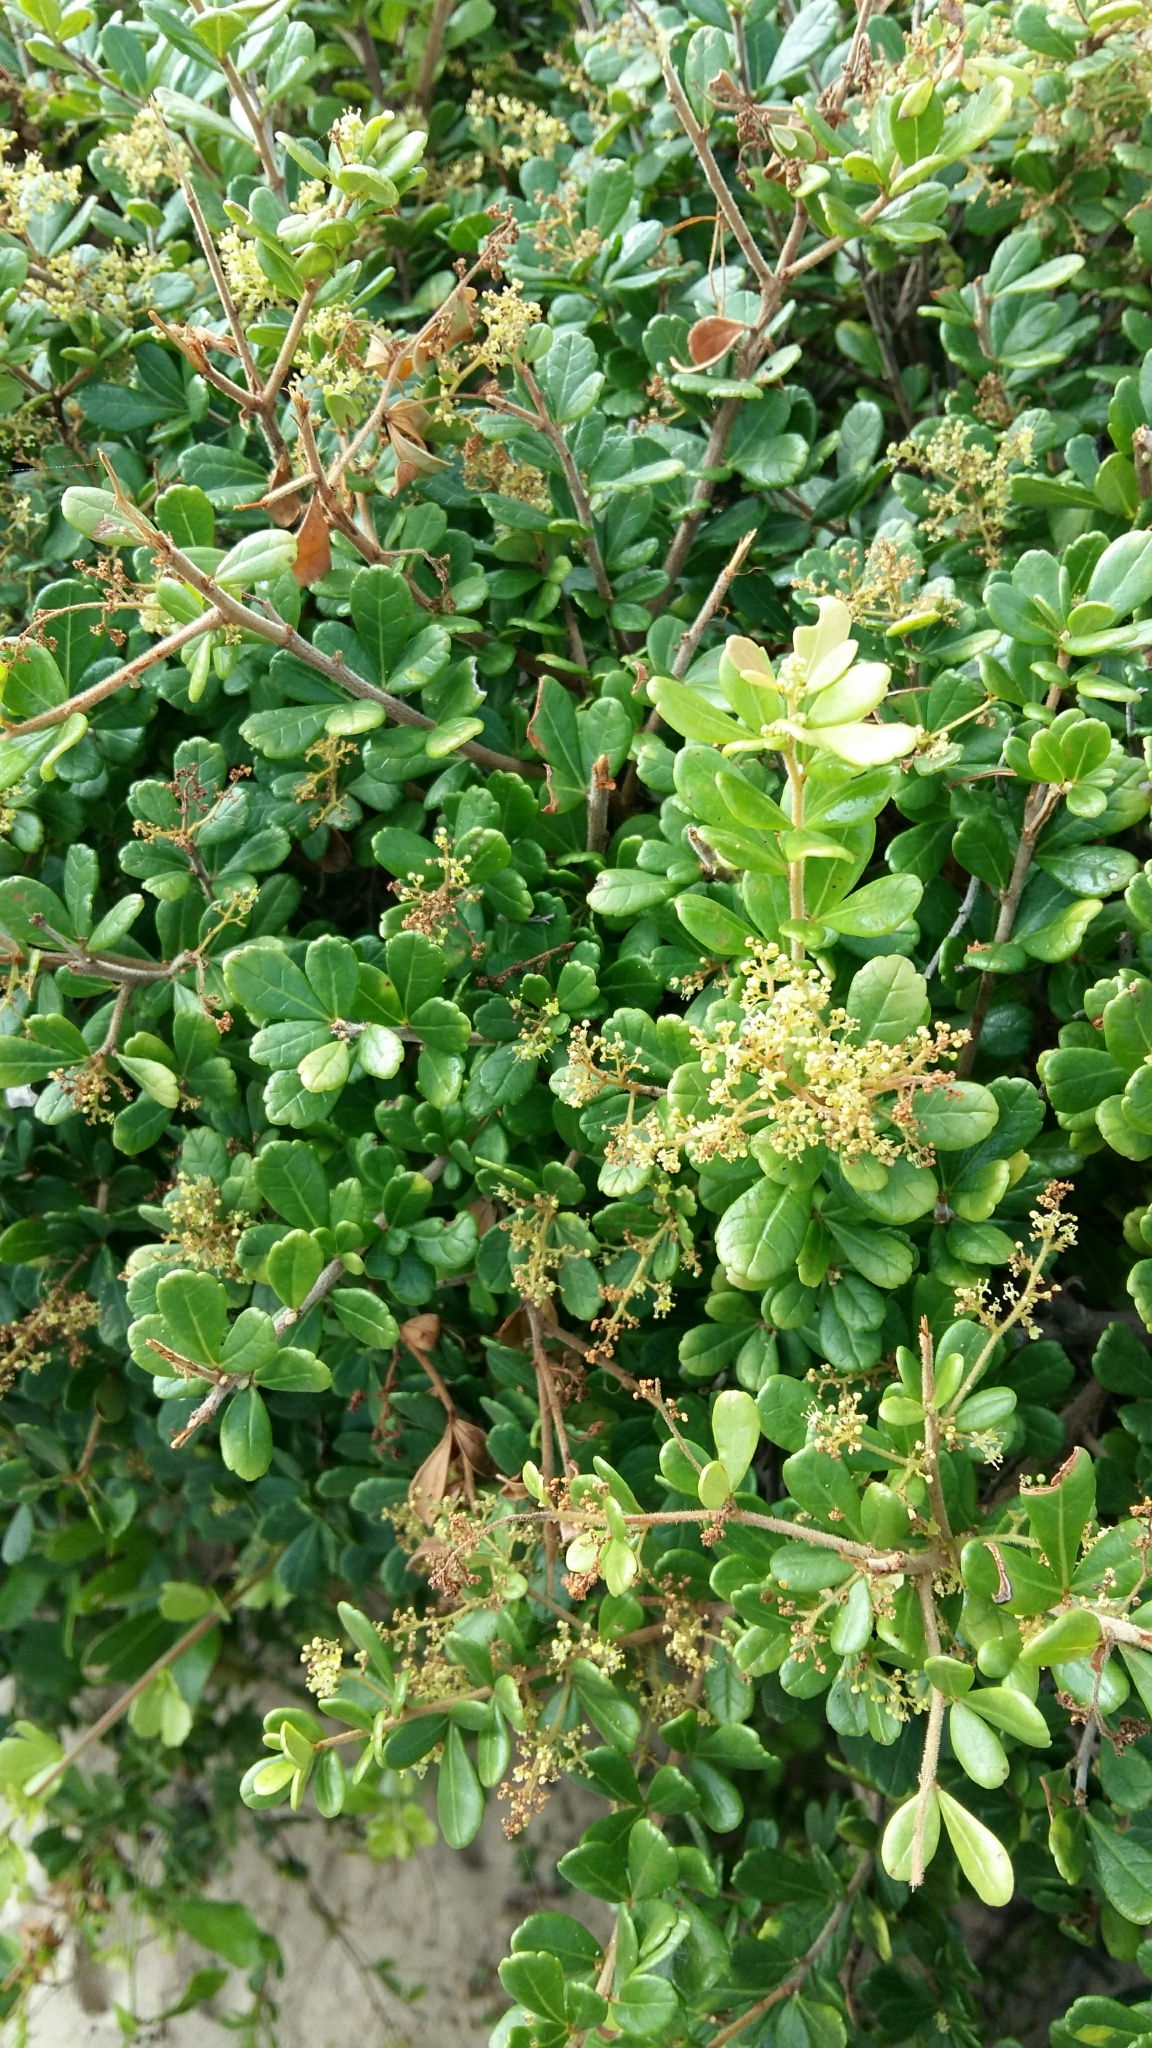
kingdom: Plantae
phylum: Tracheophyta
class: Magnoliopsida
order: Sapindales
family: Anacardiaceae
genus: Searsia
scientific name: Searsia crenata
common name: Crowberry
